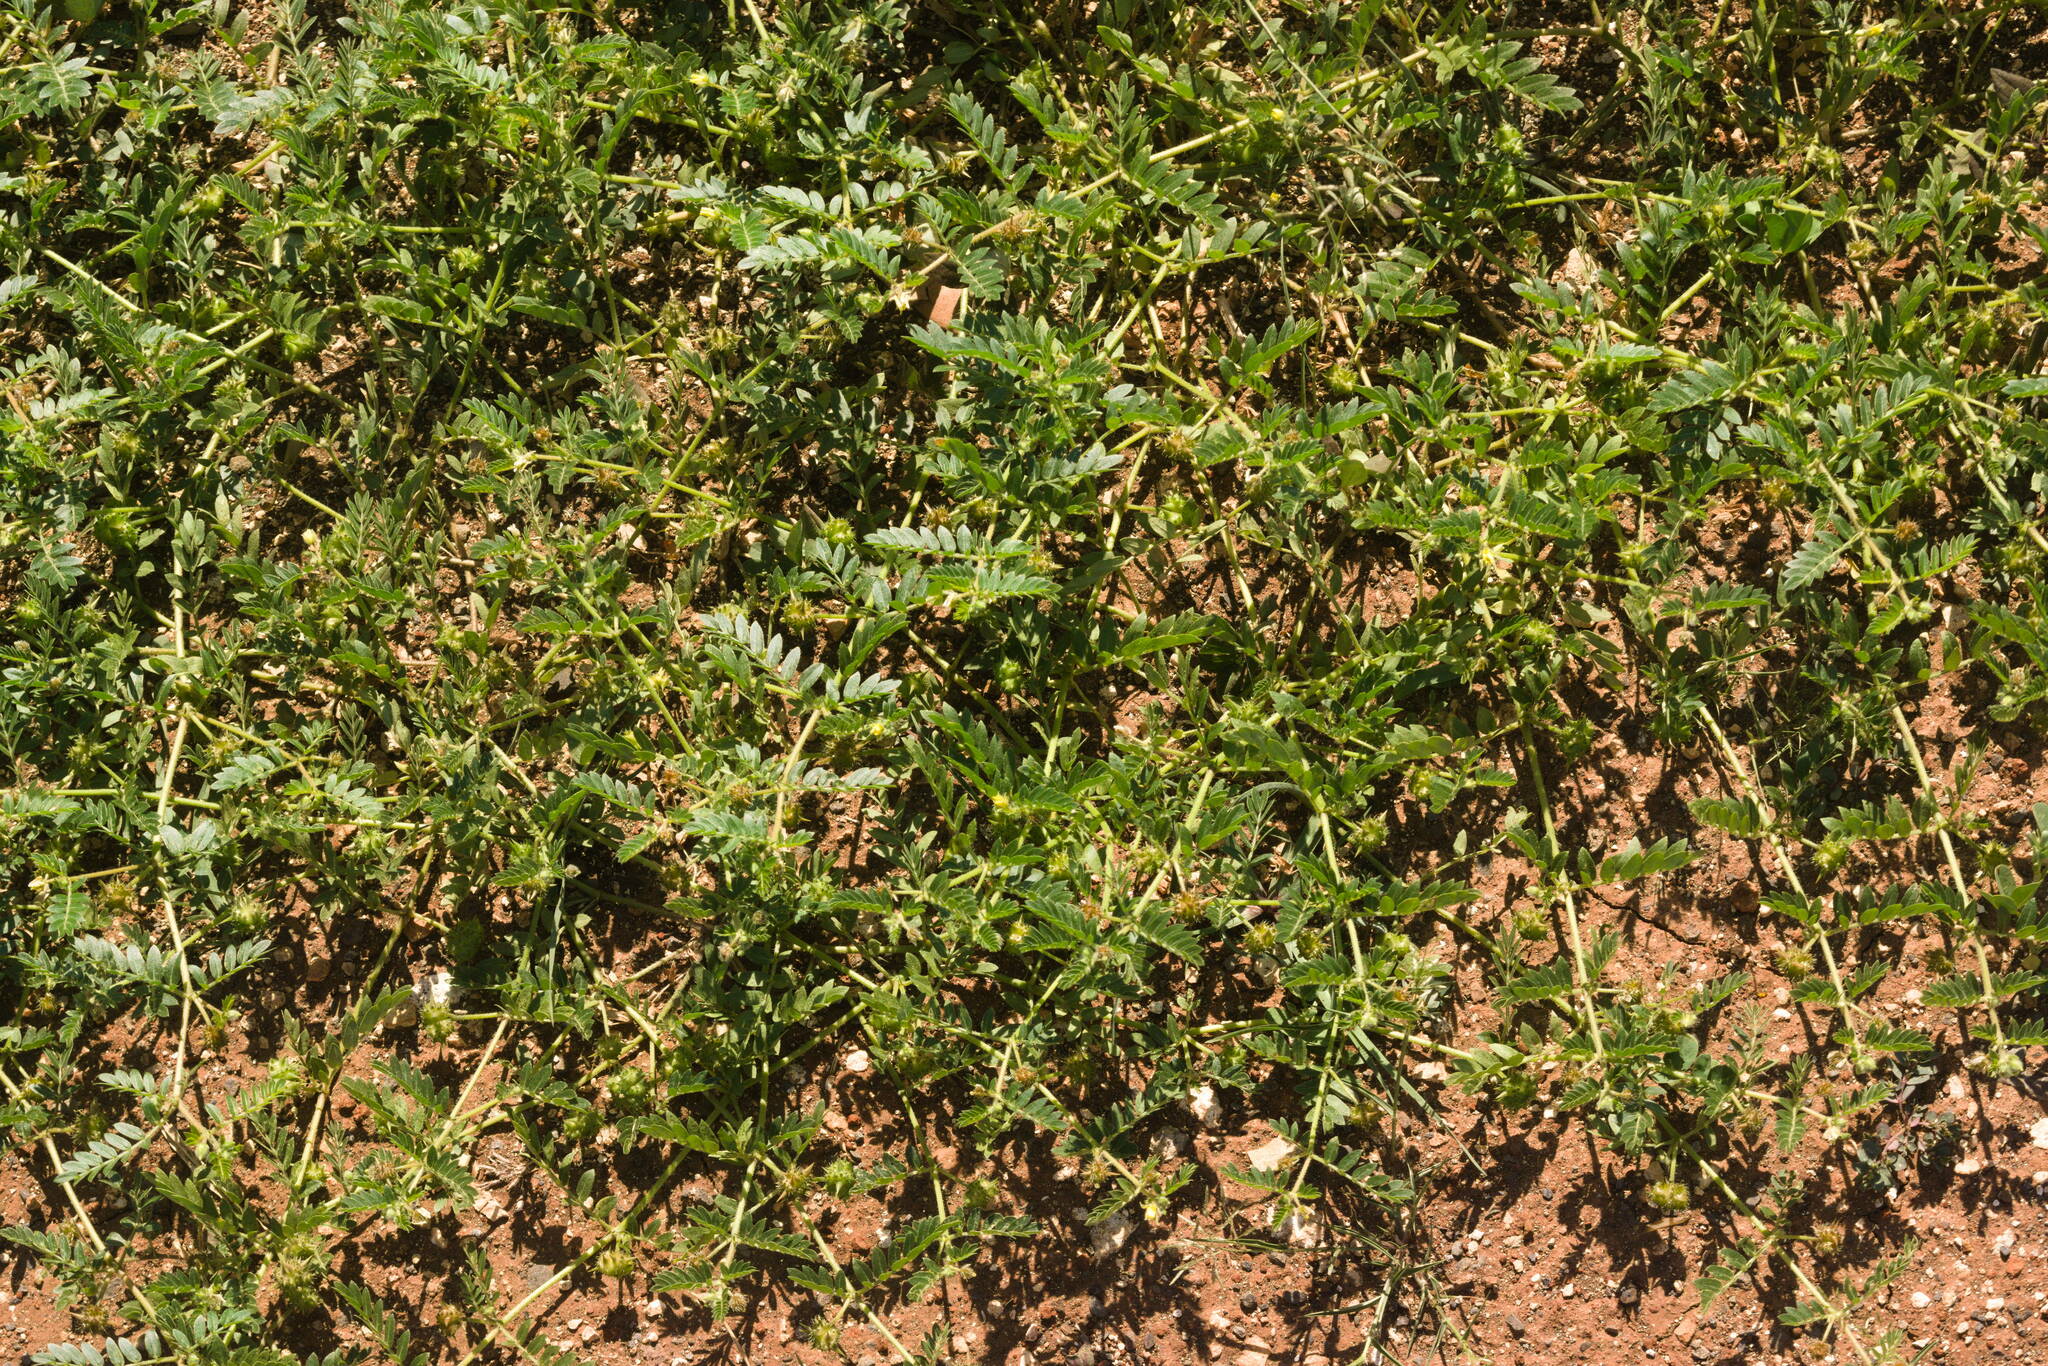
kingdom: Plantae
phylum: Tracheophyta
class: Magnoliopsida
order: Zygophyllales
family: Zygophyllaceae
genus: Tribulus
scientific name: Tribulus terrestris
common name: Puncturevine
